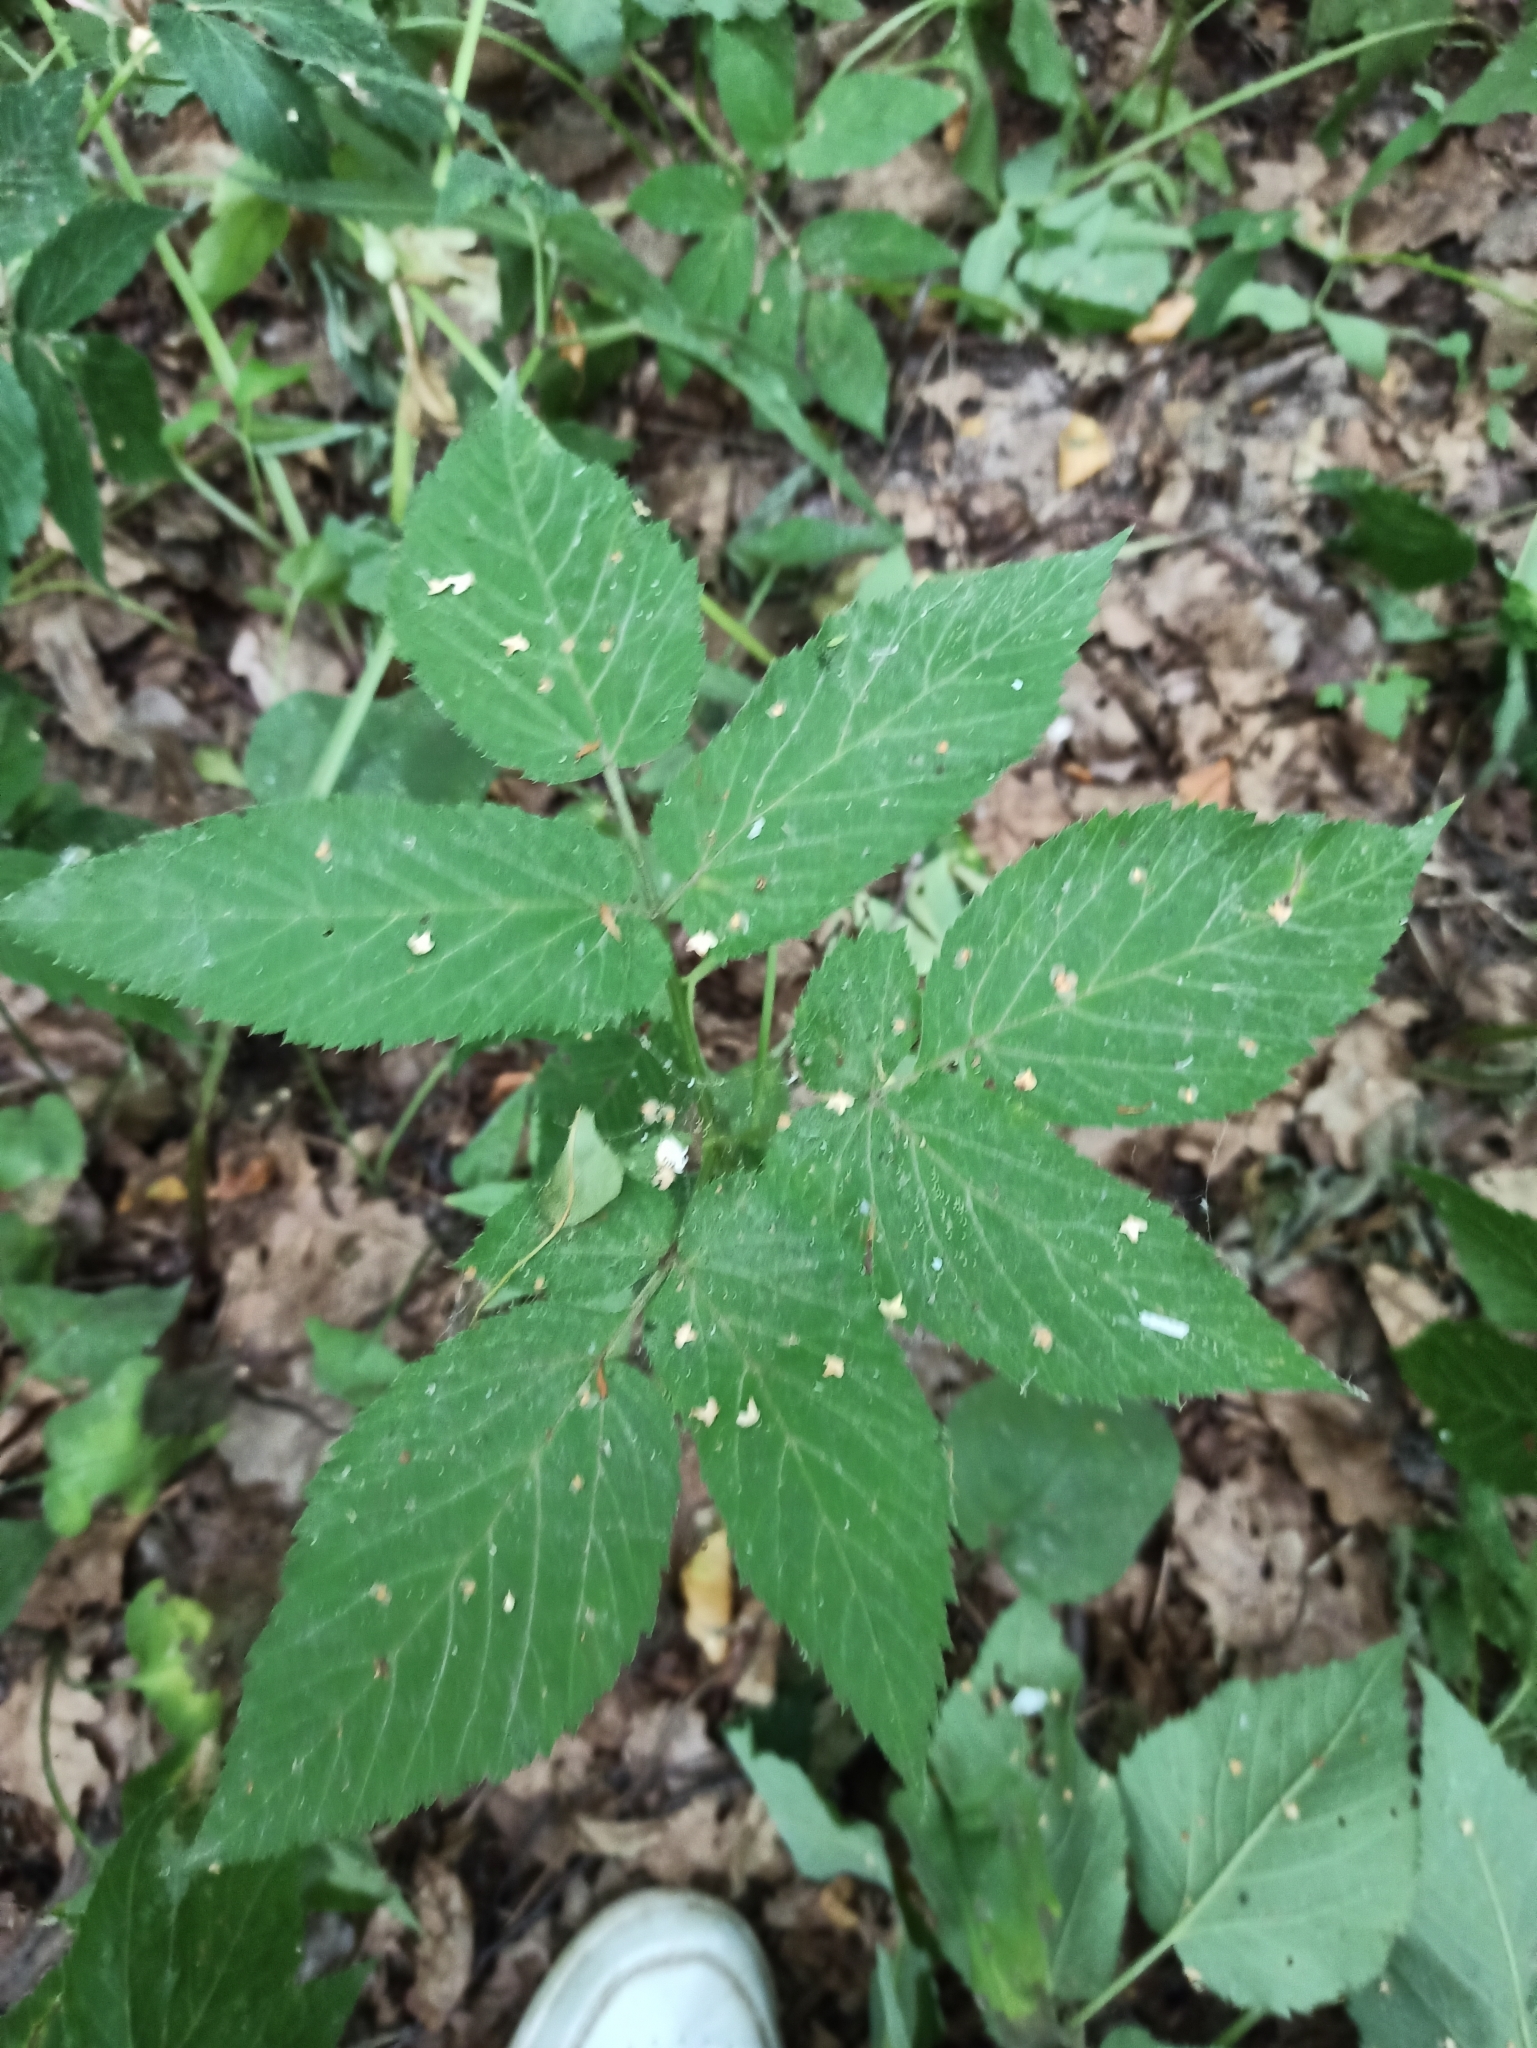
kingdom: Plantae
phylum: Tracheophyta
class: Magnoliopsida
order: Apiales
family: Apiaceae
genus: Aegopodium
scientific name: Aegopodium podagraria
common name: Ground-elder
